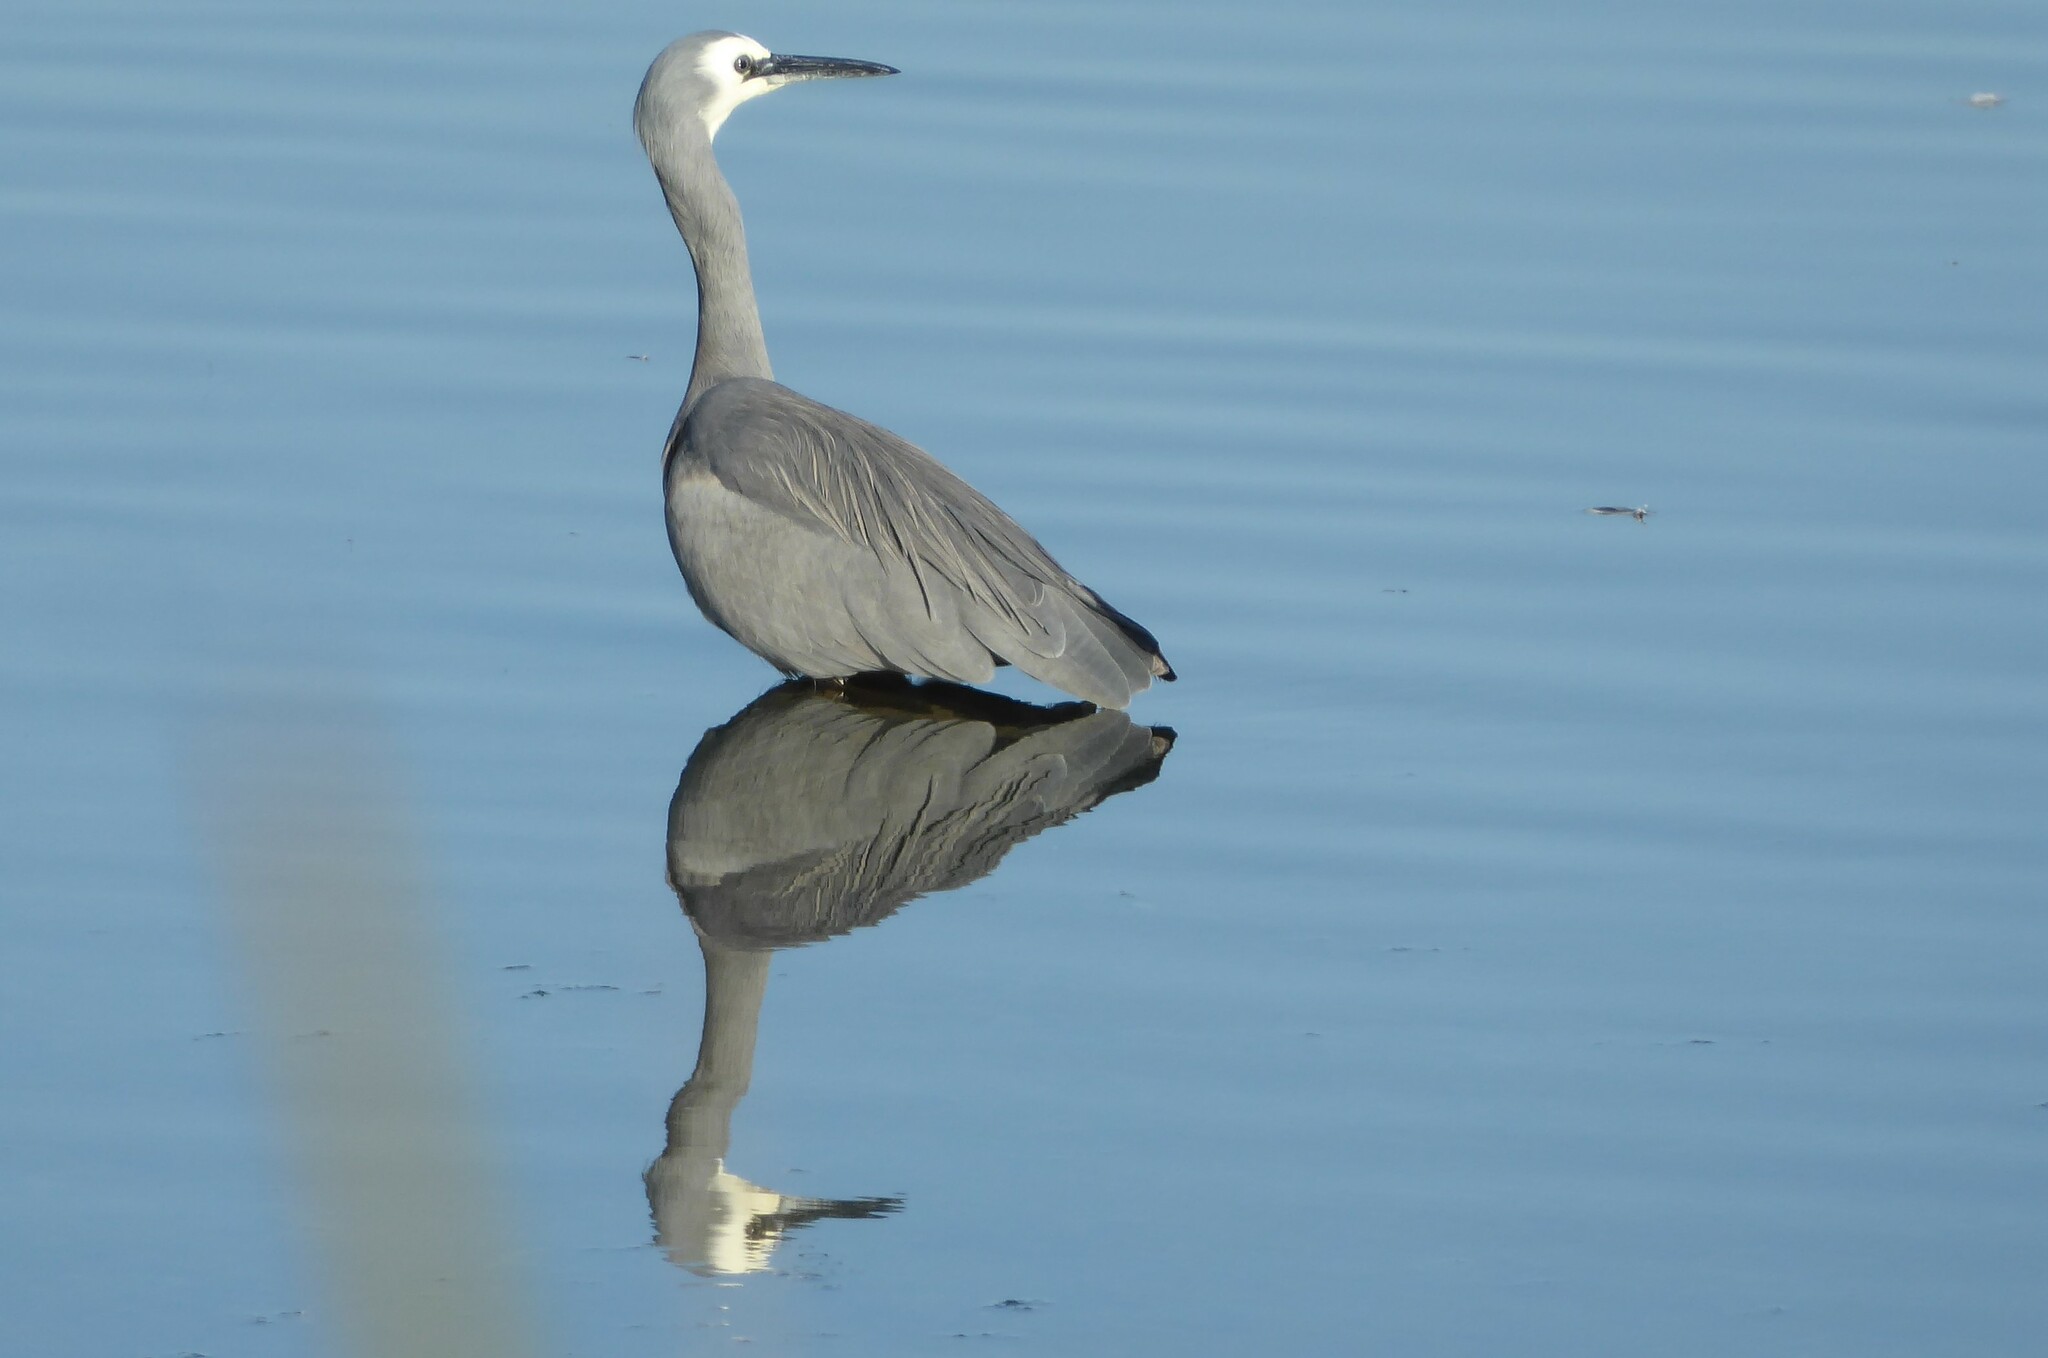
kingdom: Animalia
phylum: Chordata
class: Aves
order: Pelecaniformes
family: Ardeidae
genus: Egretta
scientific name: Egretta novaehollandiae
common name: White-faced heron
